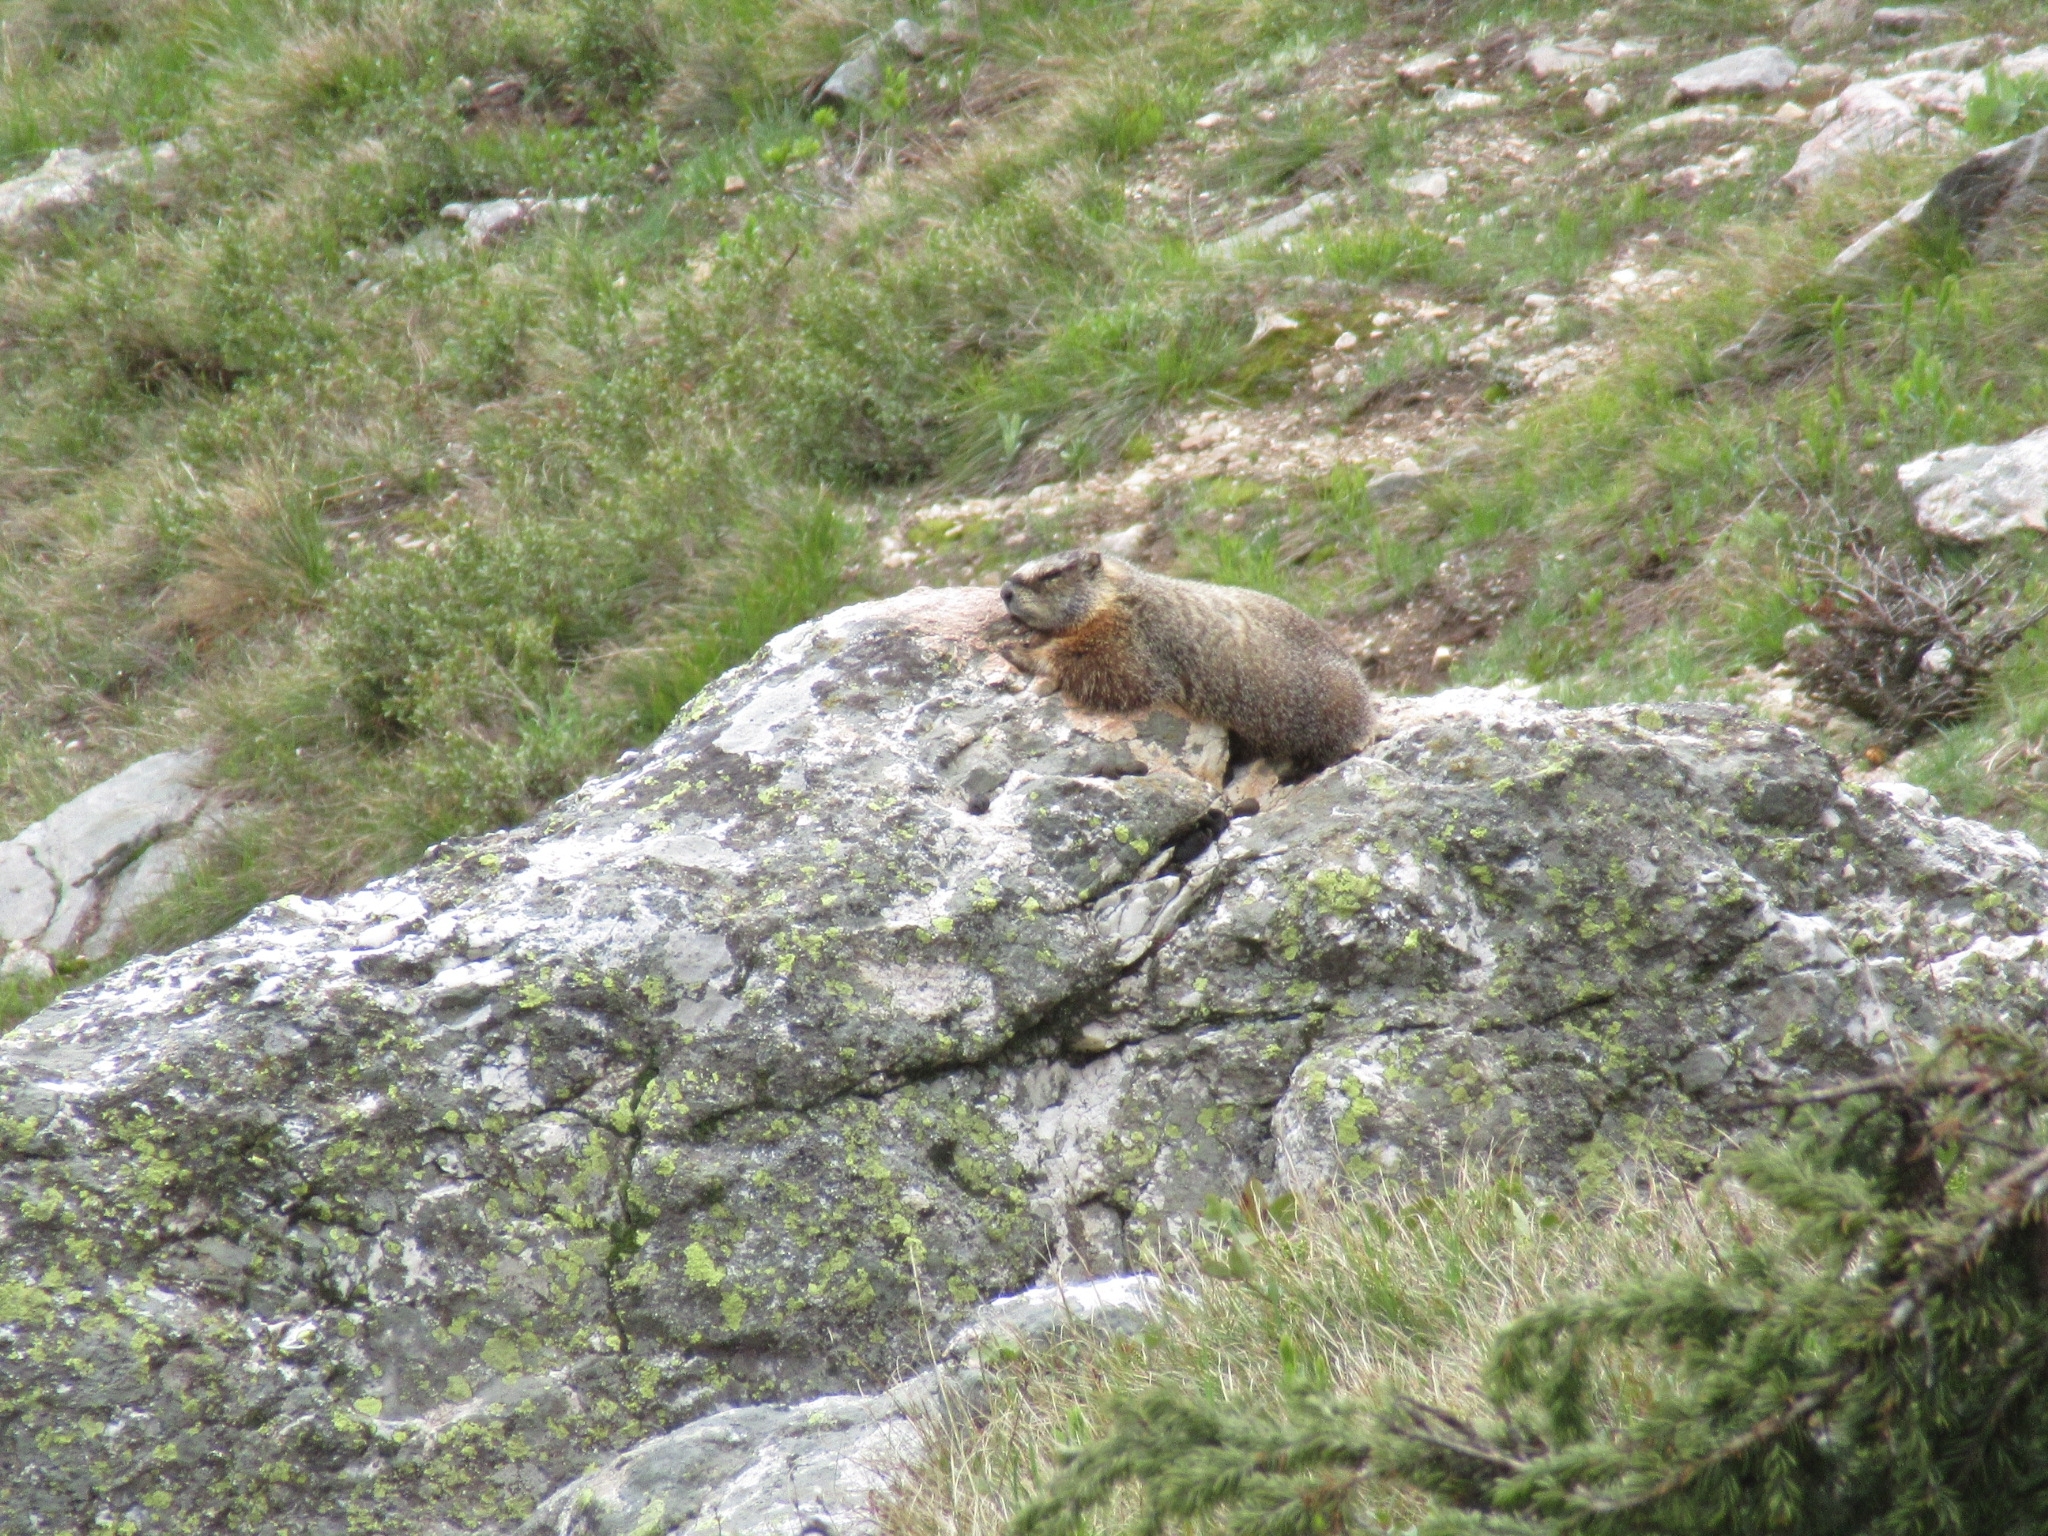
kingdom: Animalia
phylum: Chordata
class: Mammalia
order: Rodentia
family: Sciuridae
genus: Marmota
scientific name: Marmota flaviventris
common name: Yellow-bellied marmot
